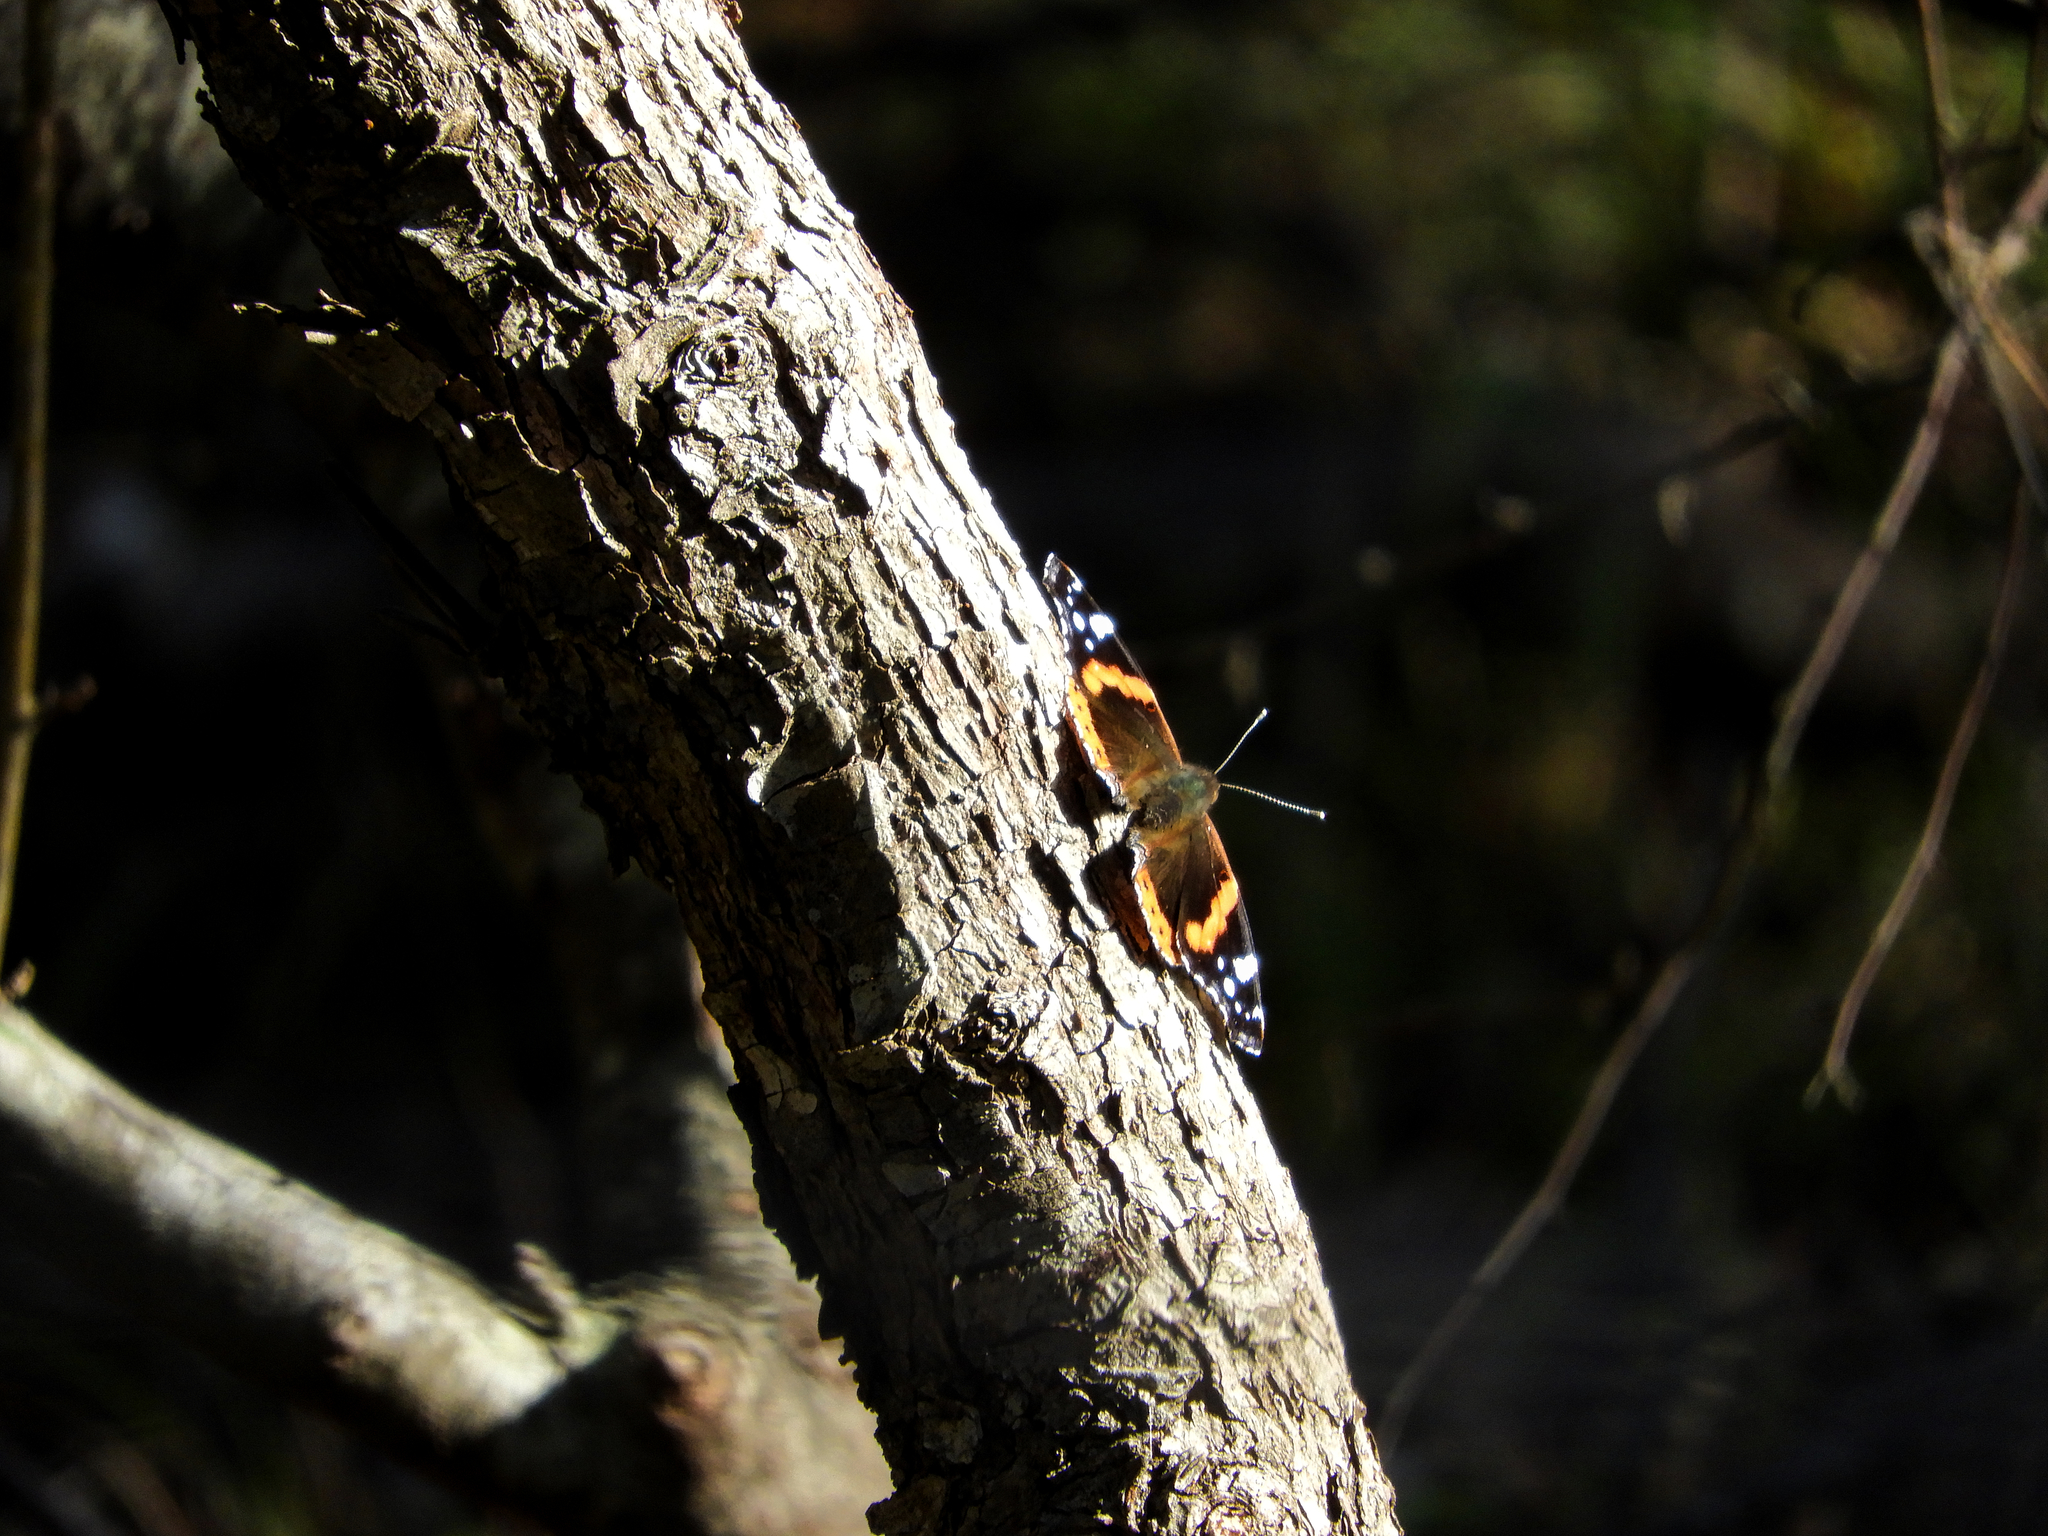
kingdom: Animalia
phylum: Arthropoda
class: Insecta
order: Lepidoptera
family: Nymphalidae
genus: Vanessa
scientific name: Vanessa atalanta
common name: Red admiral
